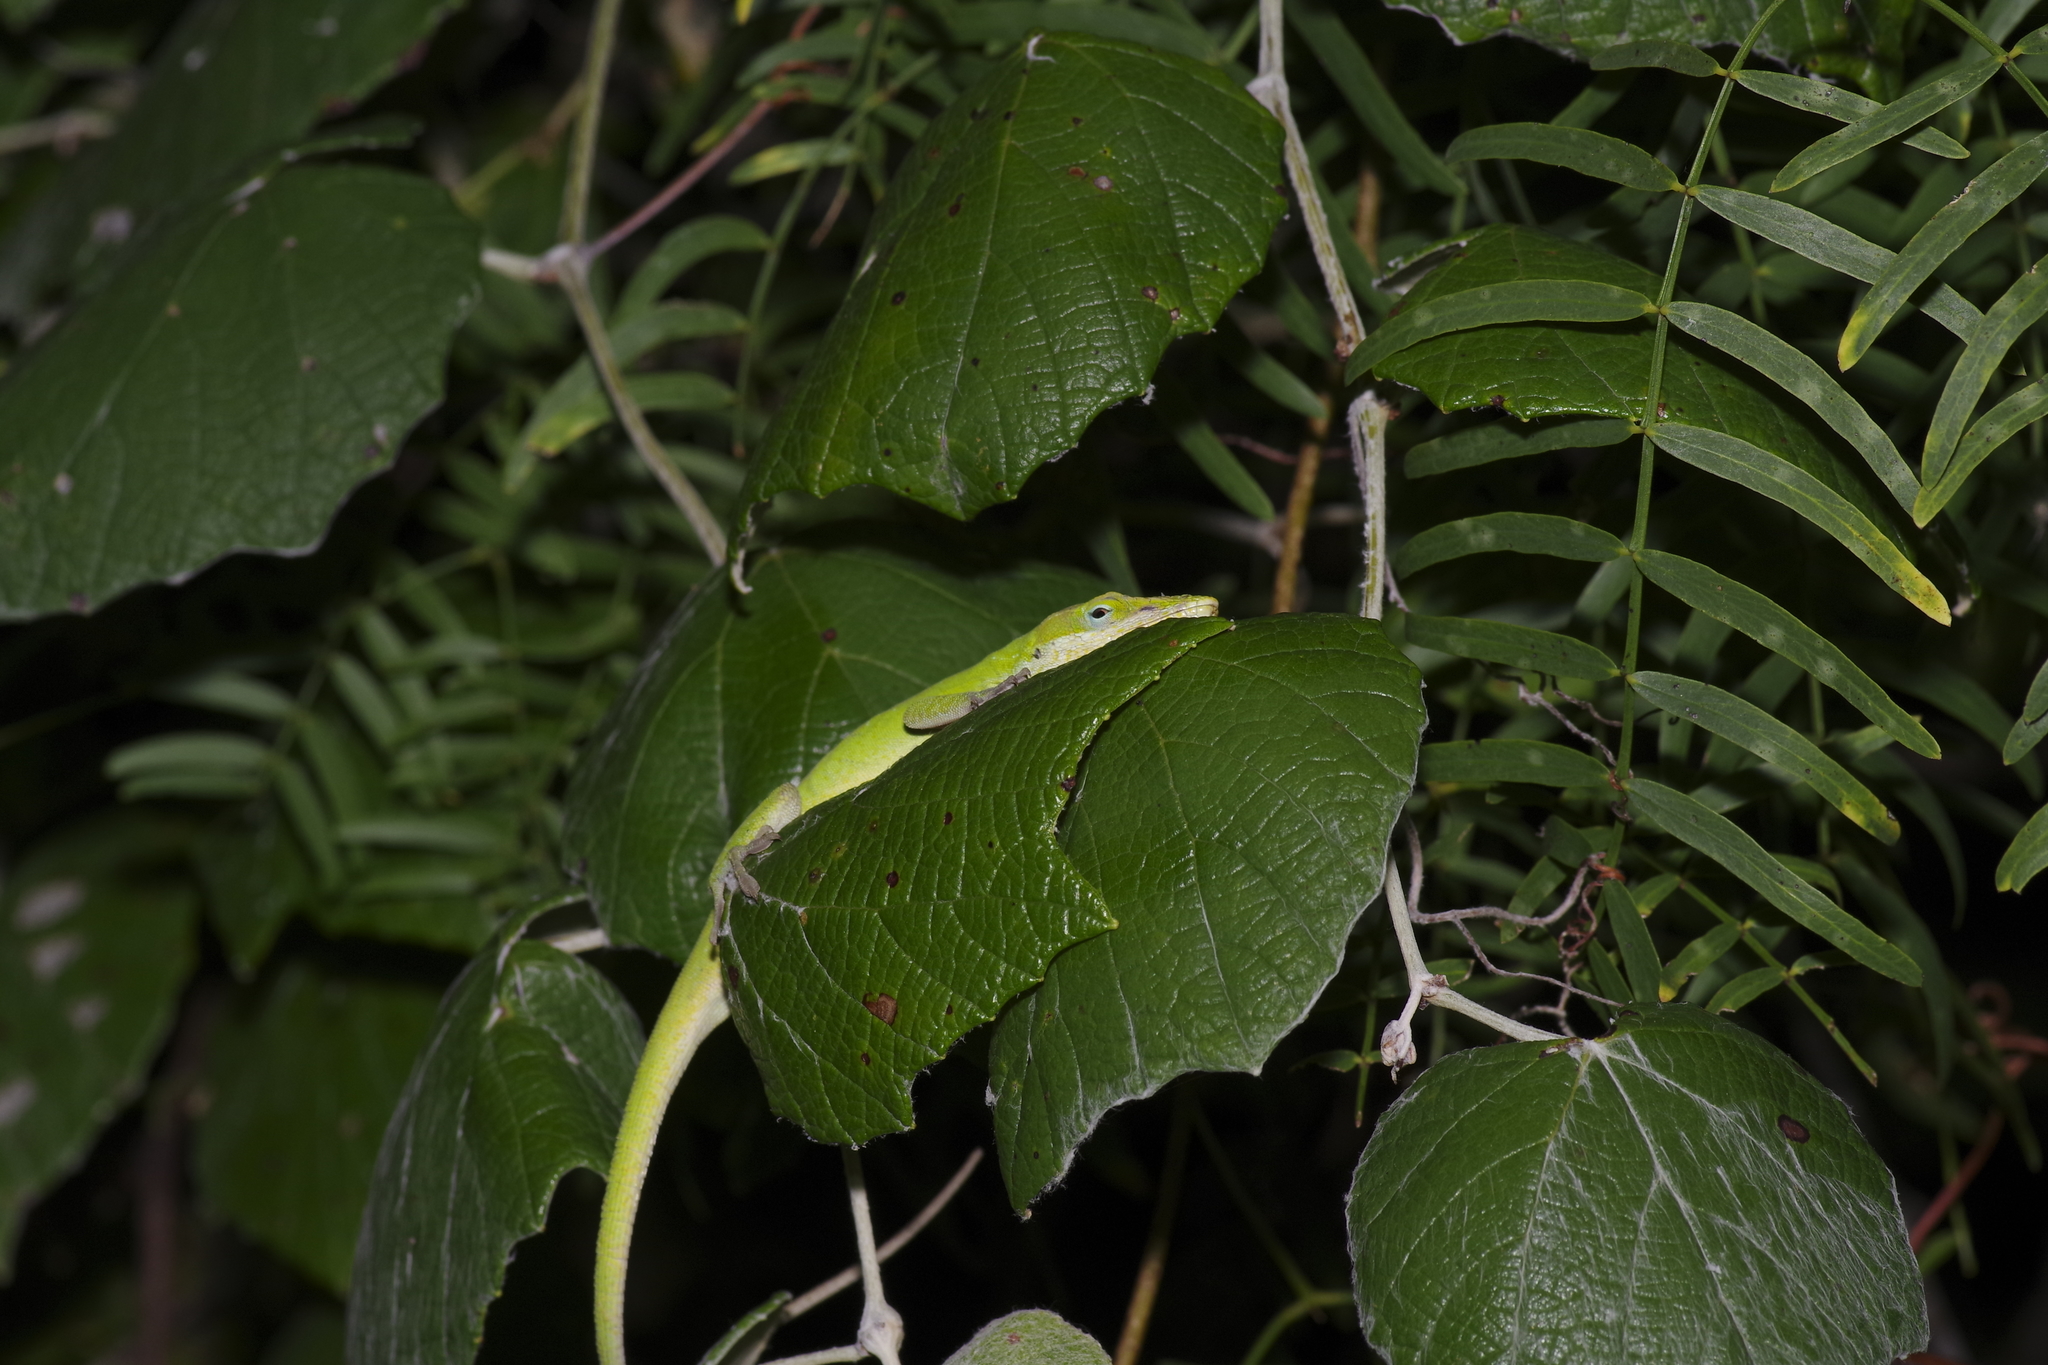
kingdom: Animalia
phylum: Chordata
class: Squamata
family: Dactyloidae
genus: Anolis
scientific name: Anolis carolinensis
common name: Green anole
